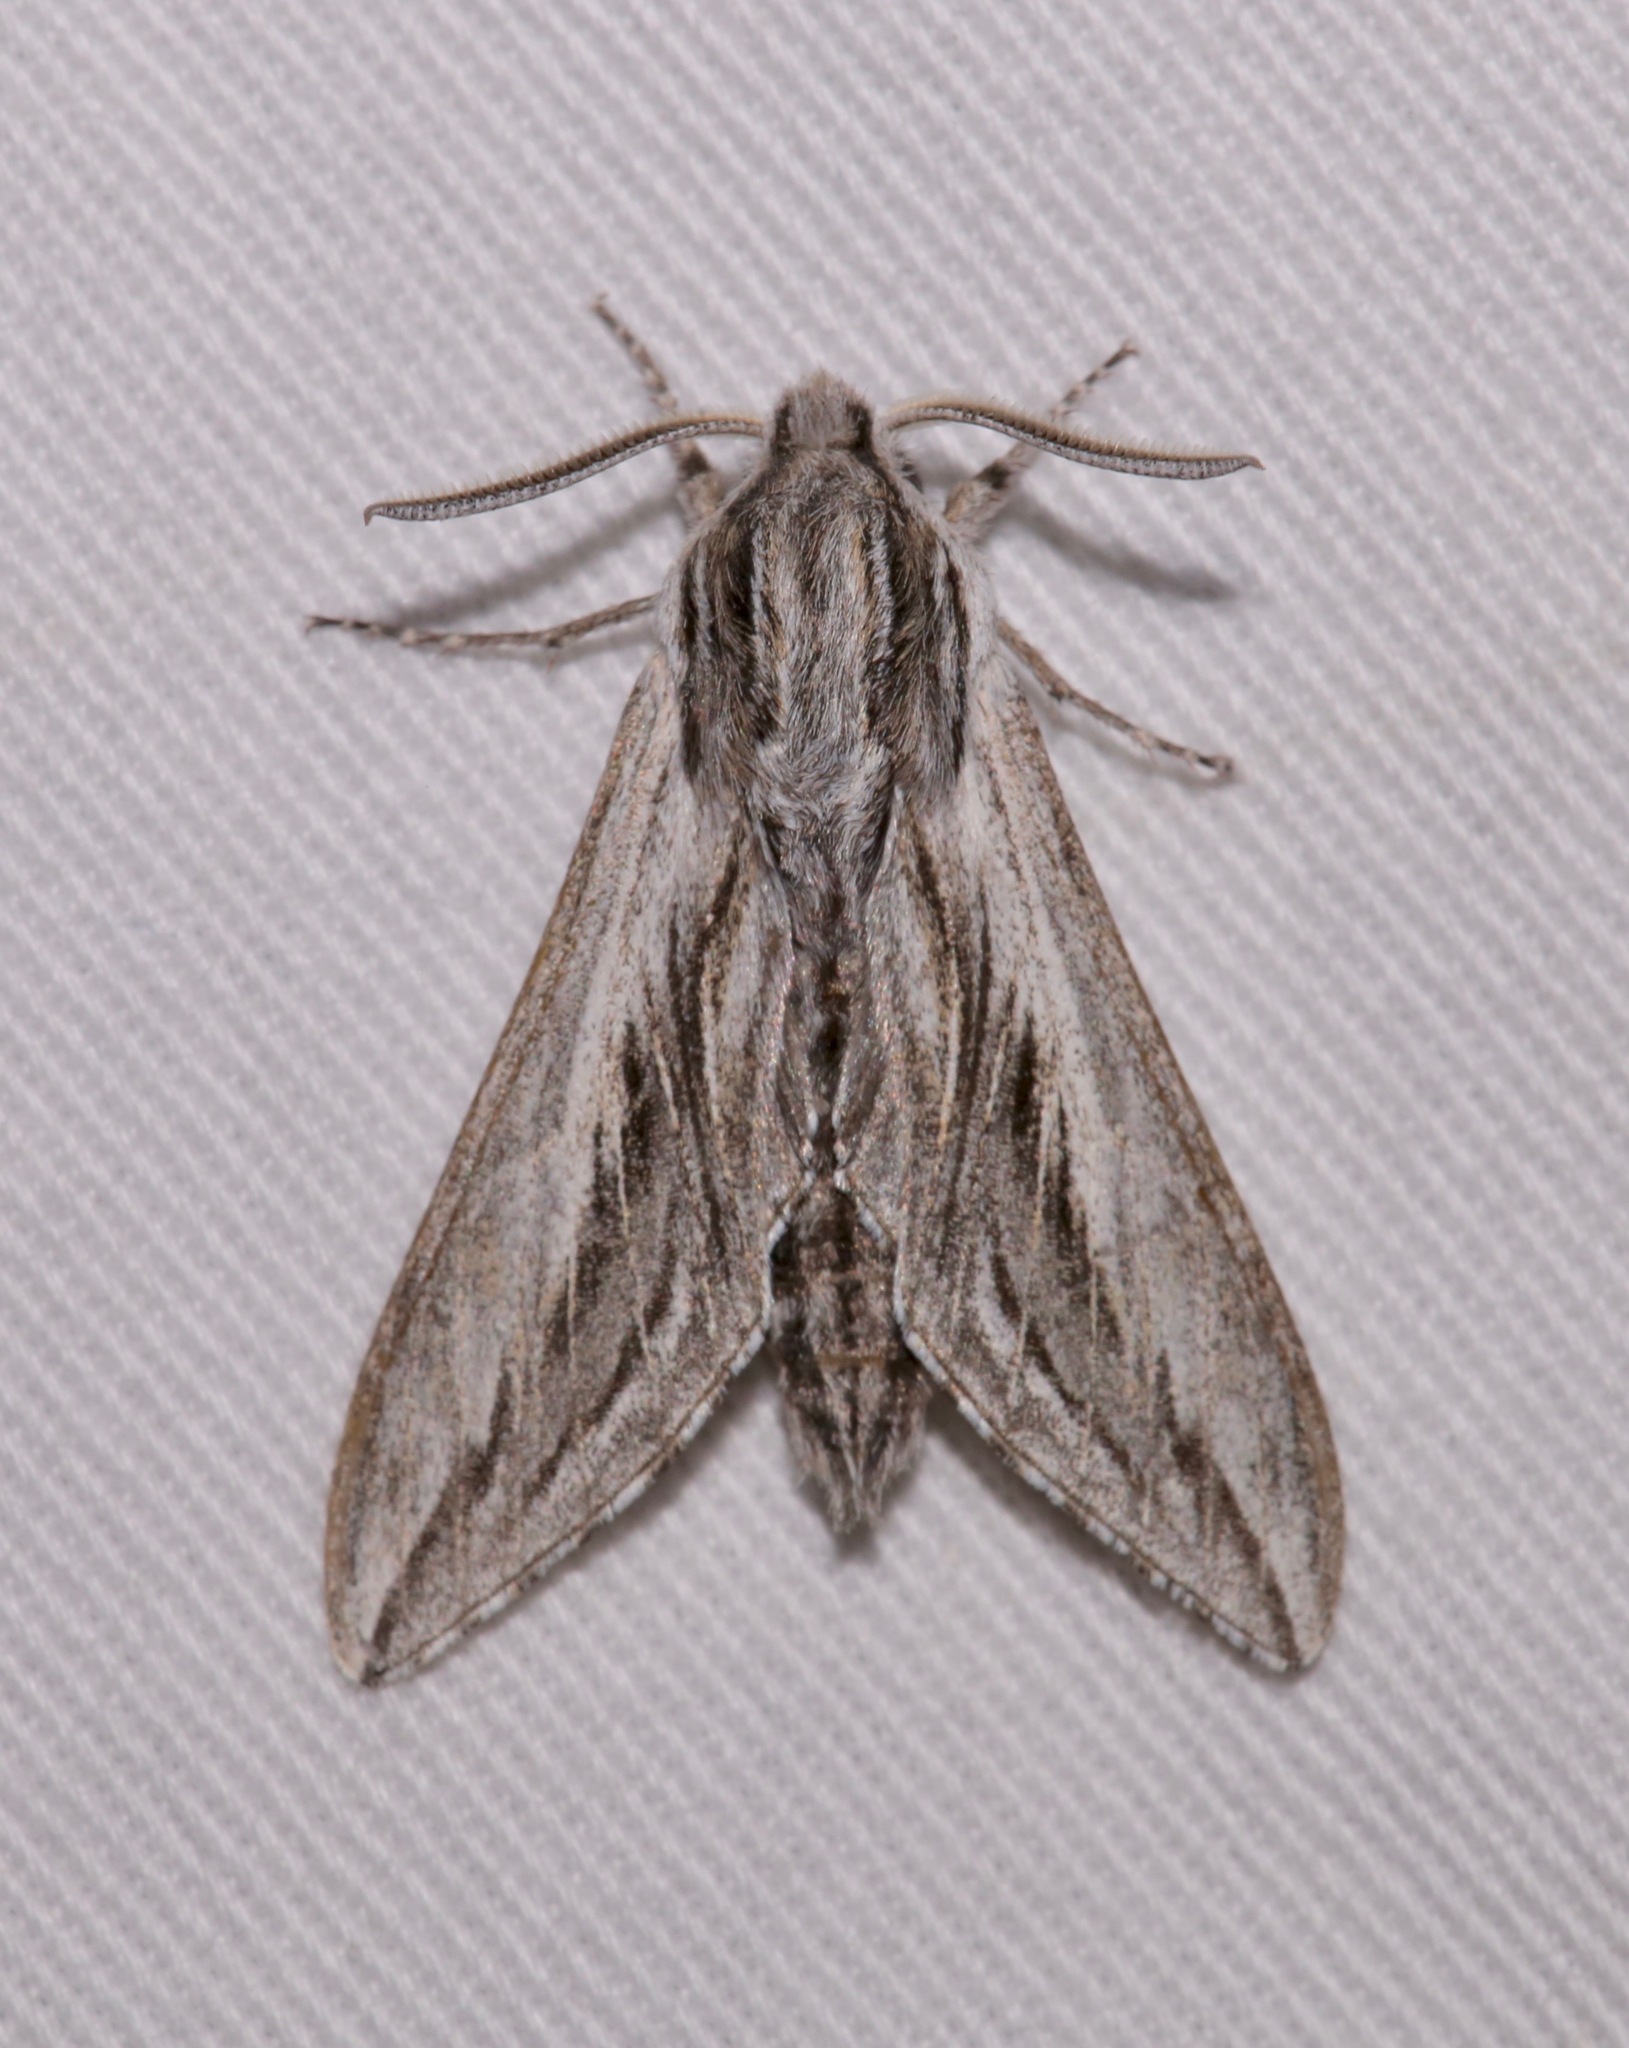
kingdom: Animalia
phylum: Arthropoda
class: Insecta
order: Lepidoptera
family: Sphingidae
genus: Sphinx
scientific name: Sphinx dollii
